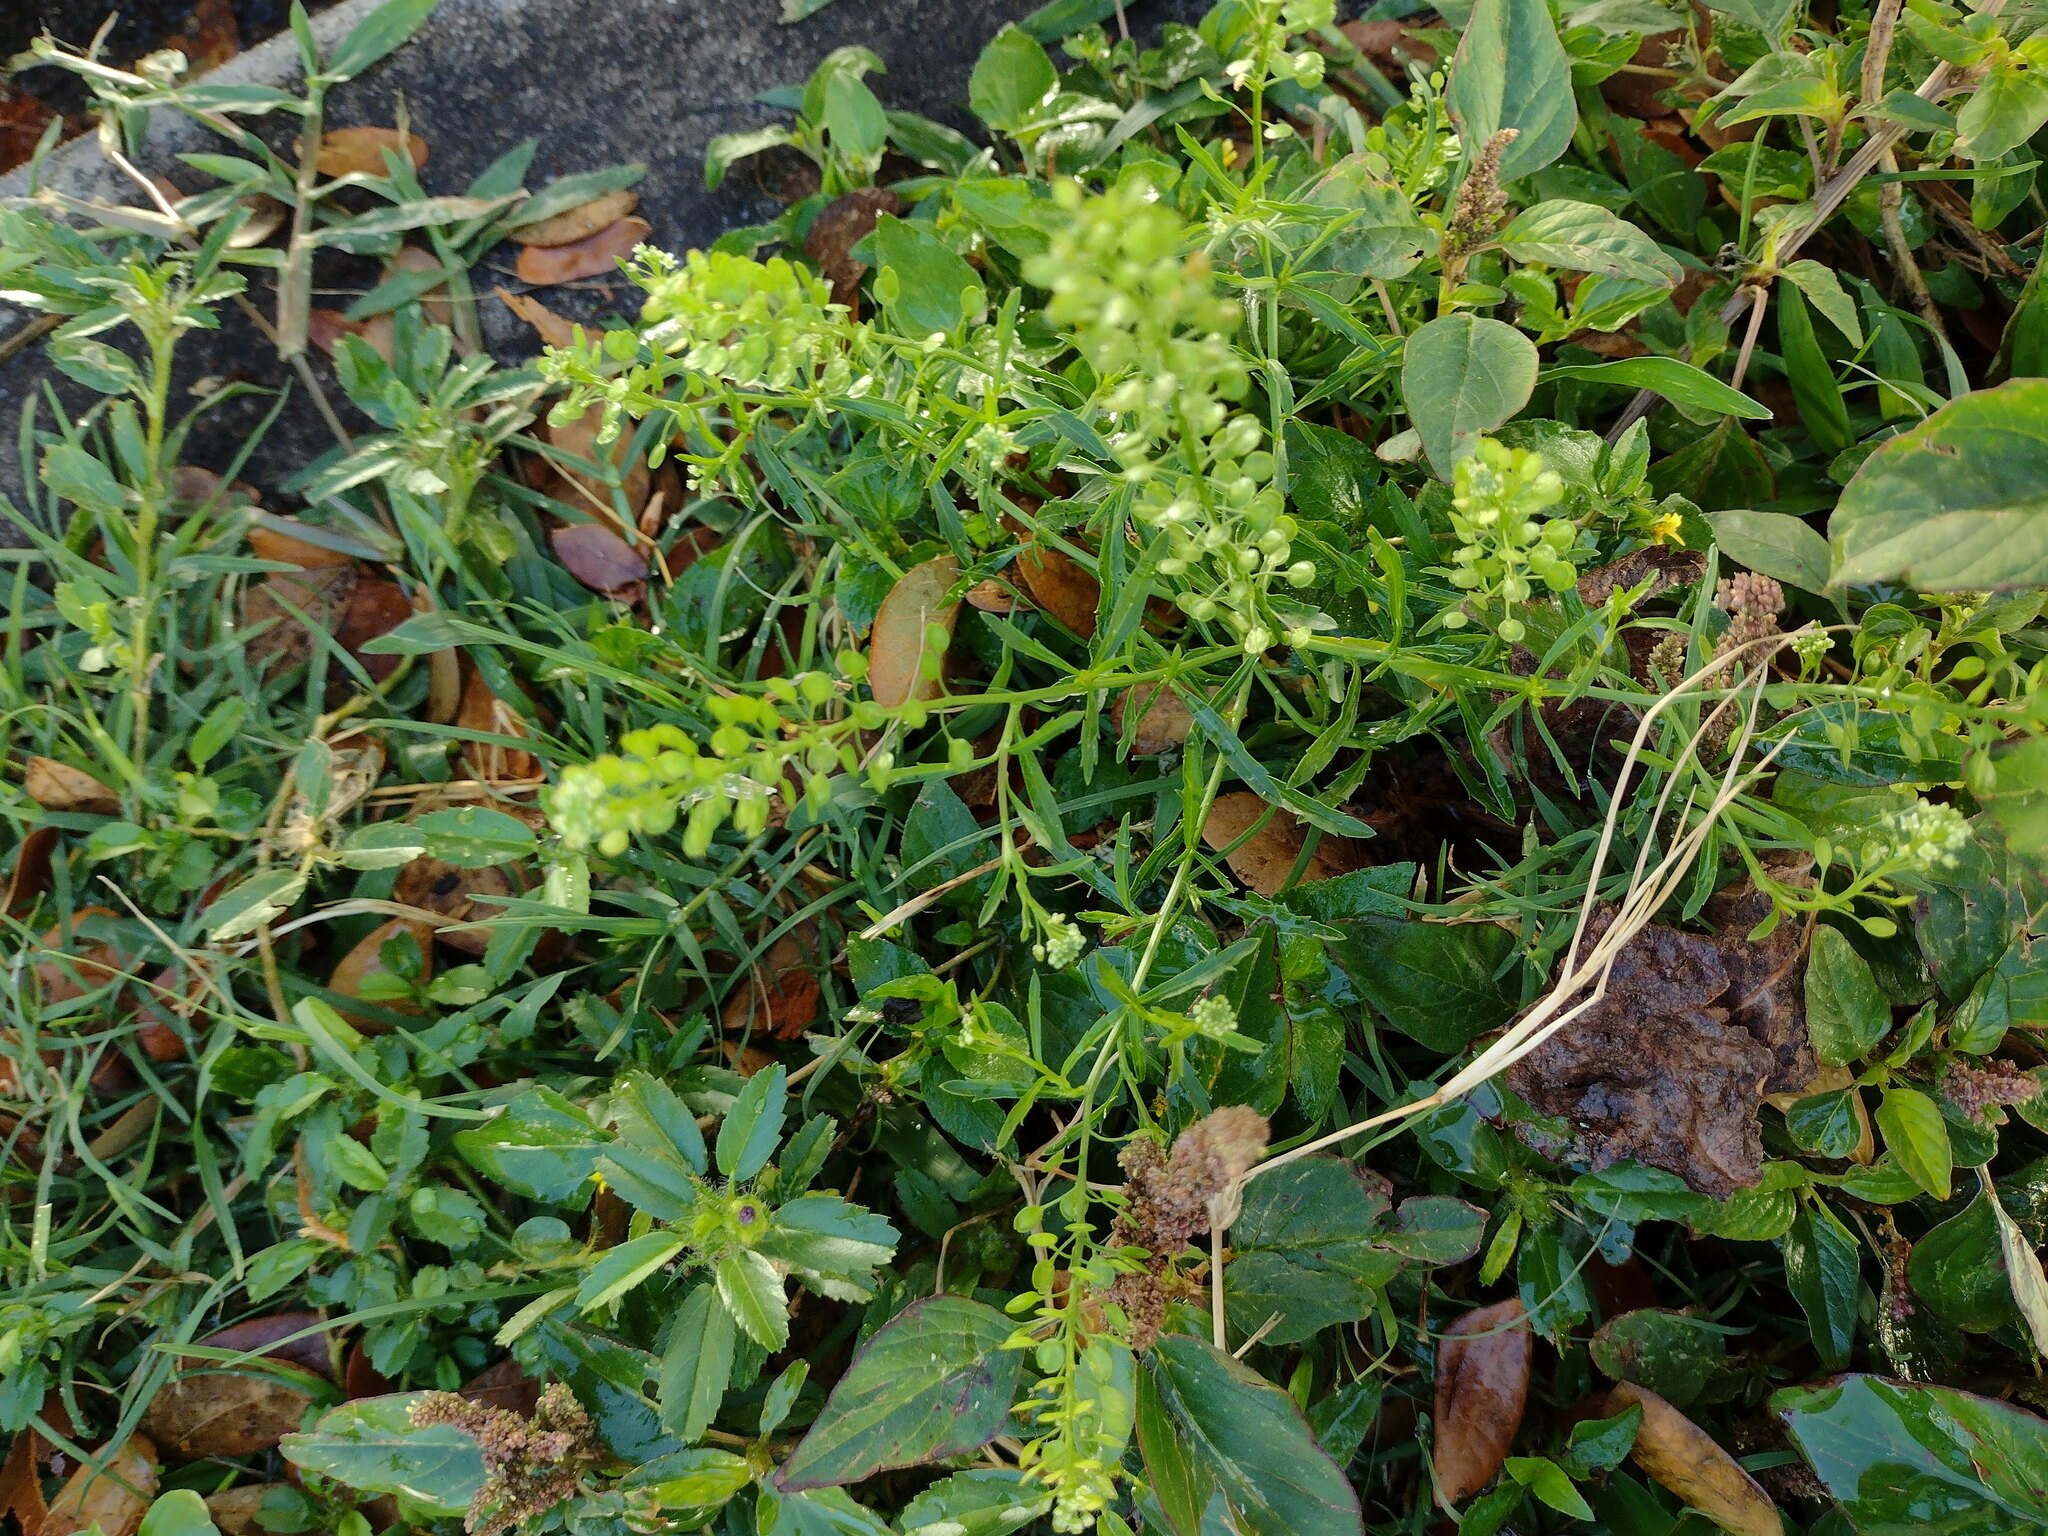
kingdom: Plantae
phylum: Tracheophyta
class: Magnoliopsida
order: Brassicales
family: Brassicaceae
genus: Lepidium
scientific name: Lepidium virginicum
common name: Least pepperwort
